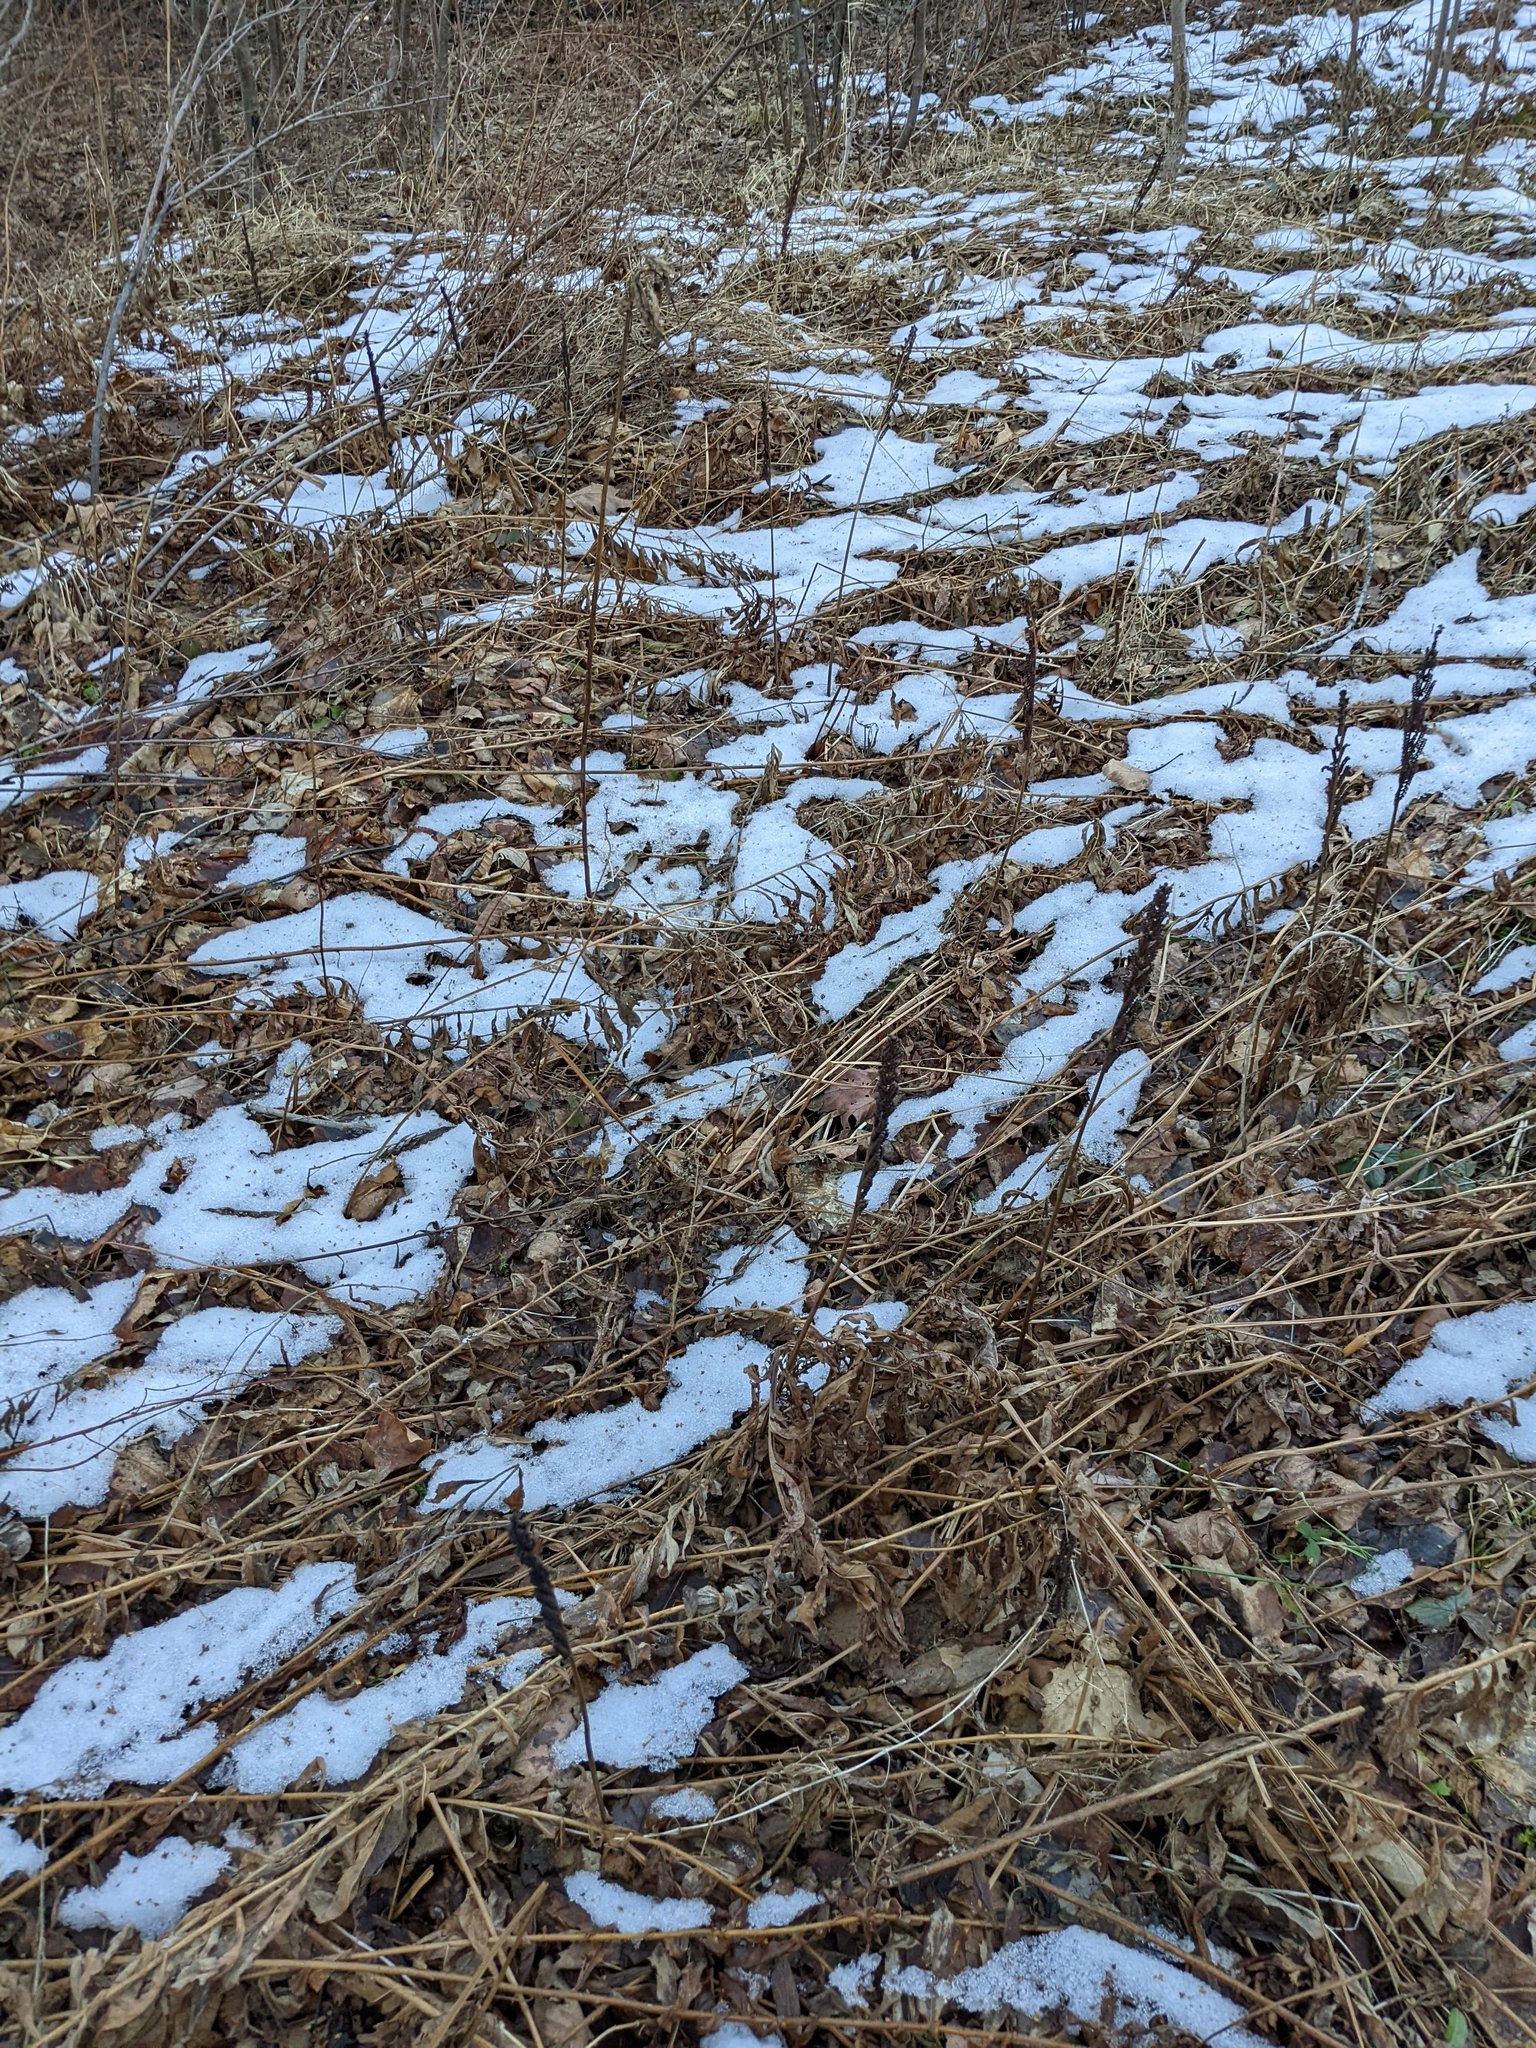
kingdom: Plantae
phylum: Tracheophyta
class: Polypodiopsida
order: Polypodiales
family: Onocleaceae
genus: Onoclea
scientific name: Onoclea sensibilis
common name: Sensitive fern
